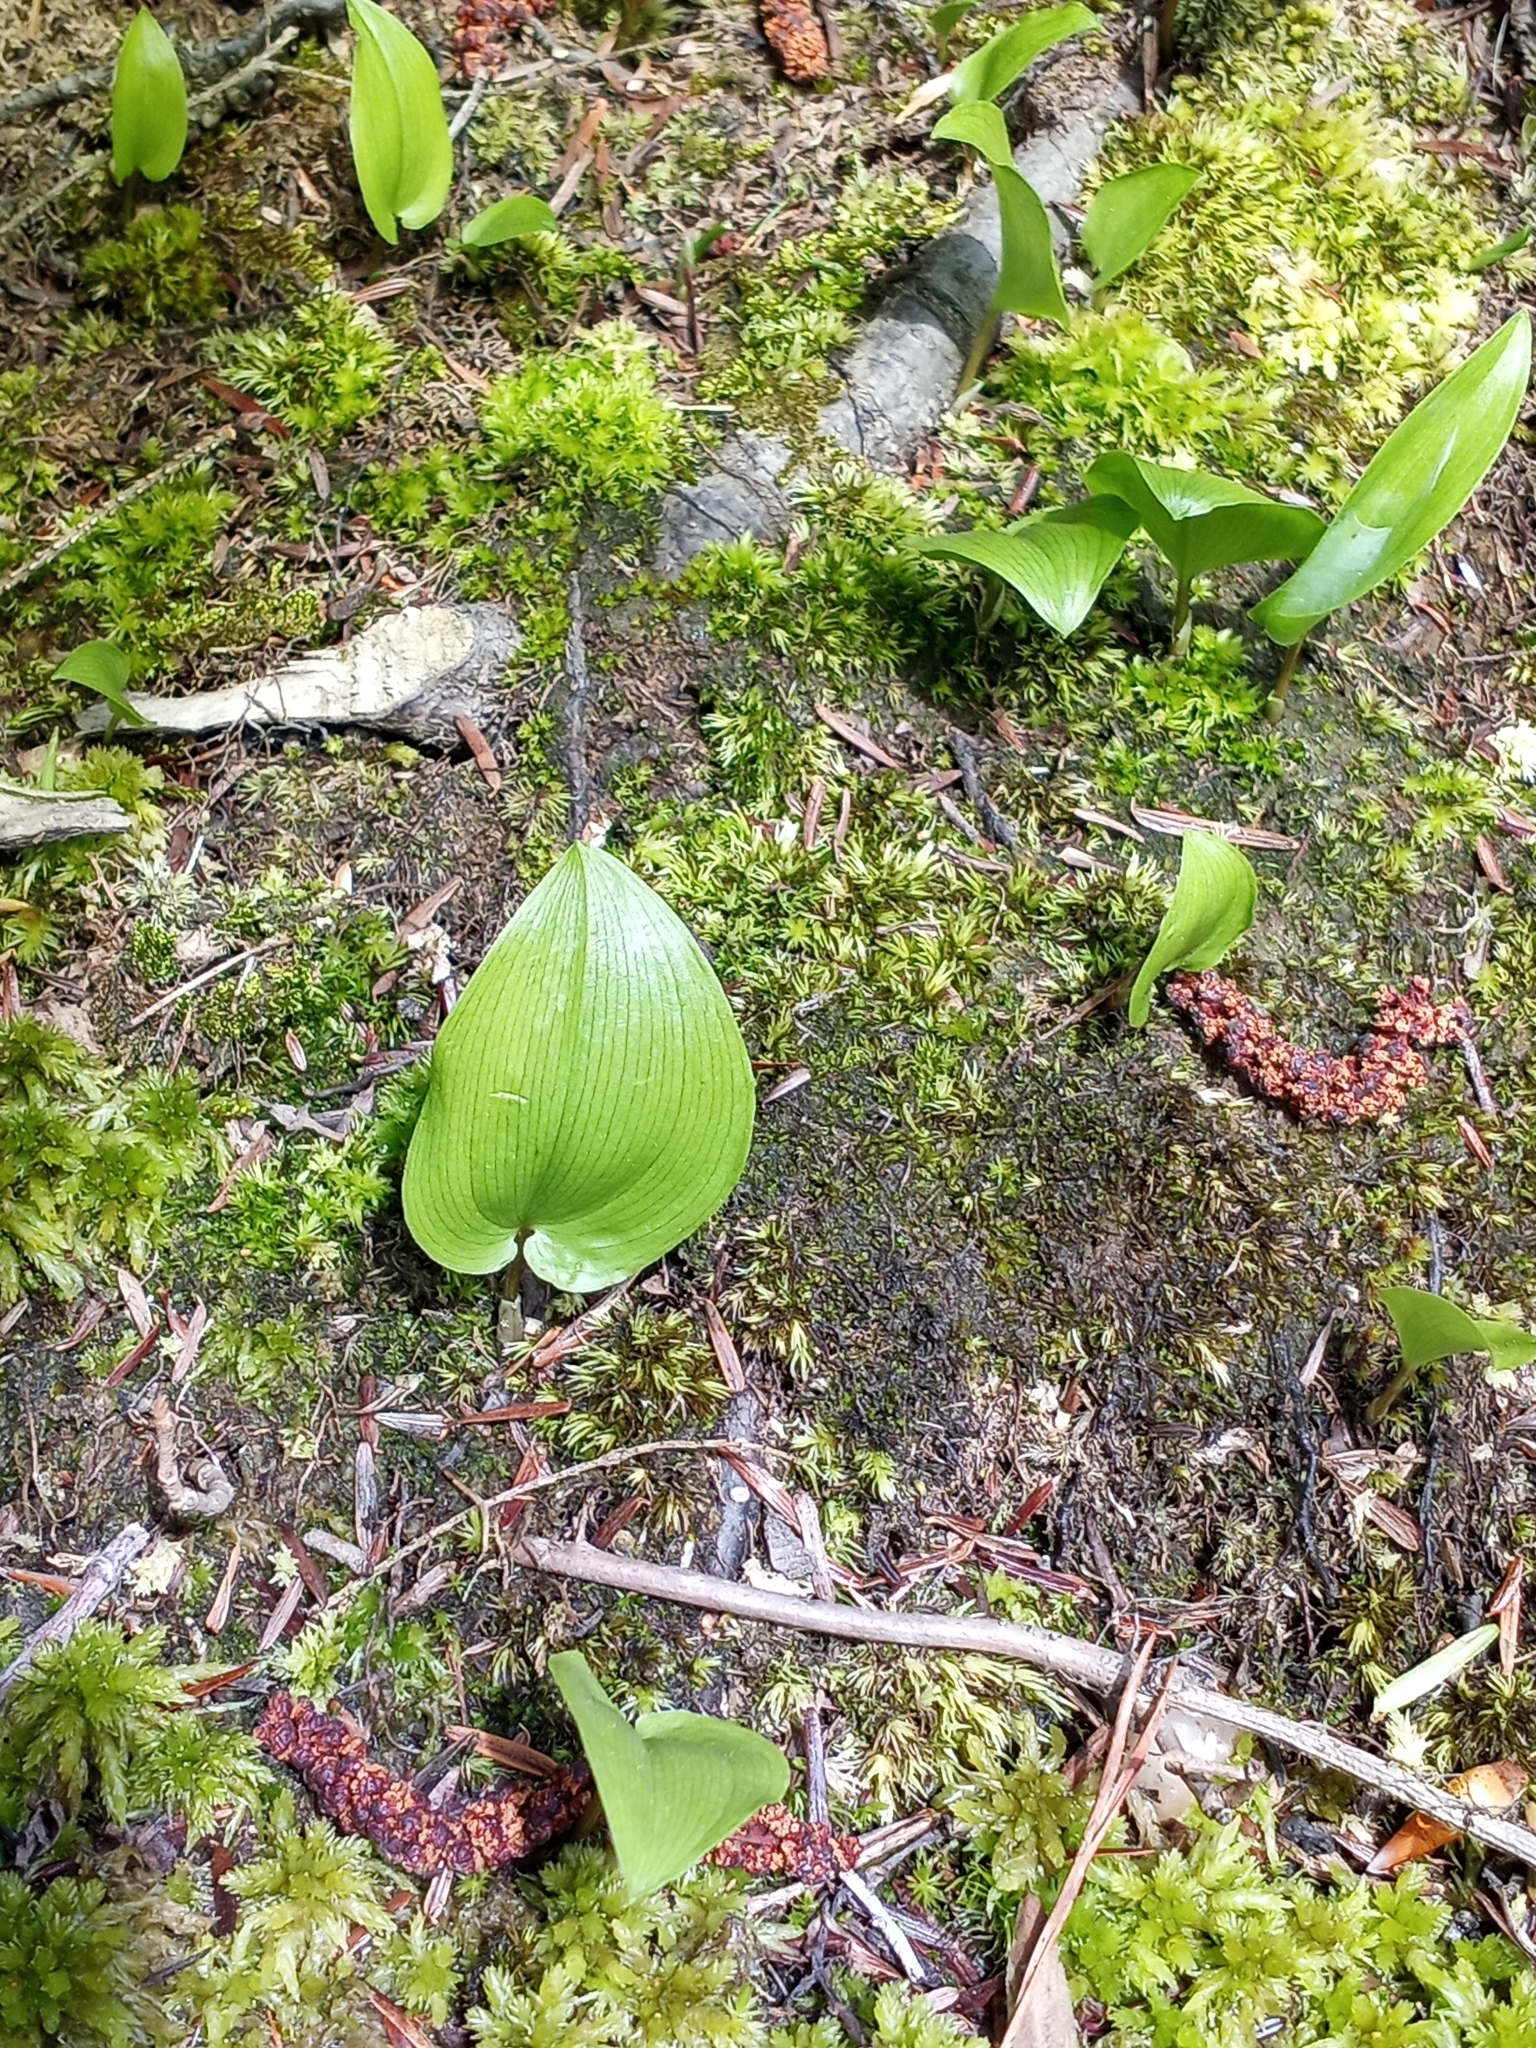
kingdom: Plantae
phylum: Tracheophyta
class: Liliopsida
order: Asparagales
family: Asparagaceae
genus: Maianthemum
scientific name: Maianthemum canadense
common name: False lily-of-the-valley
